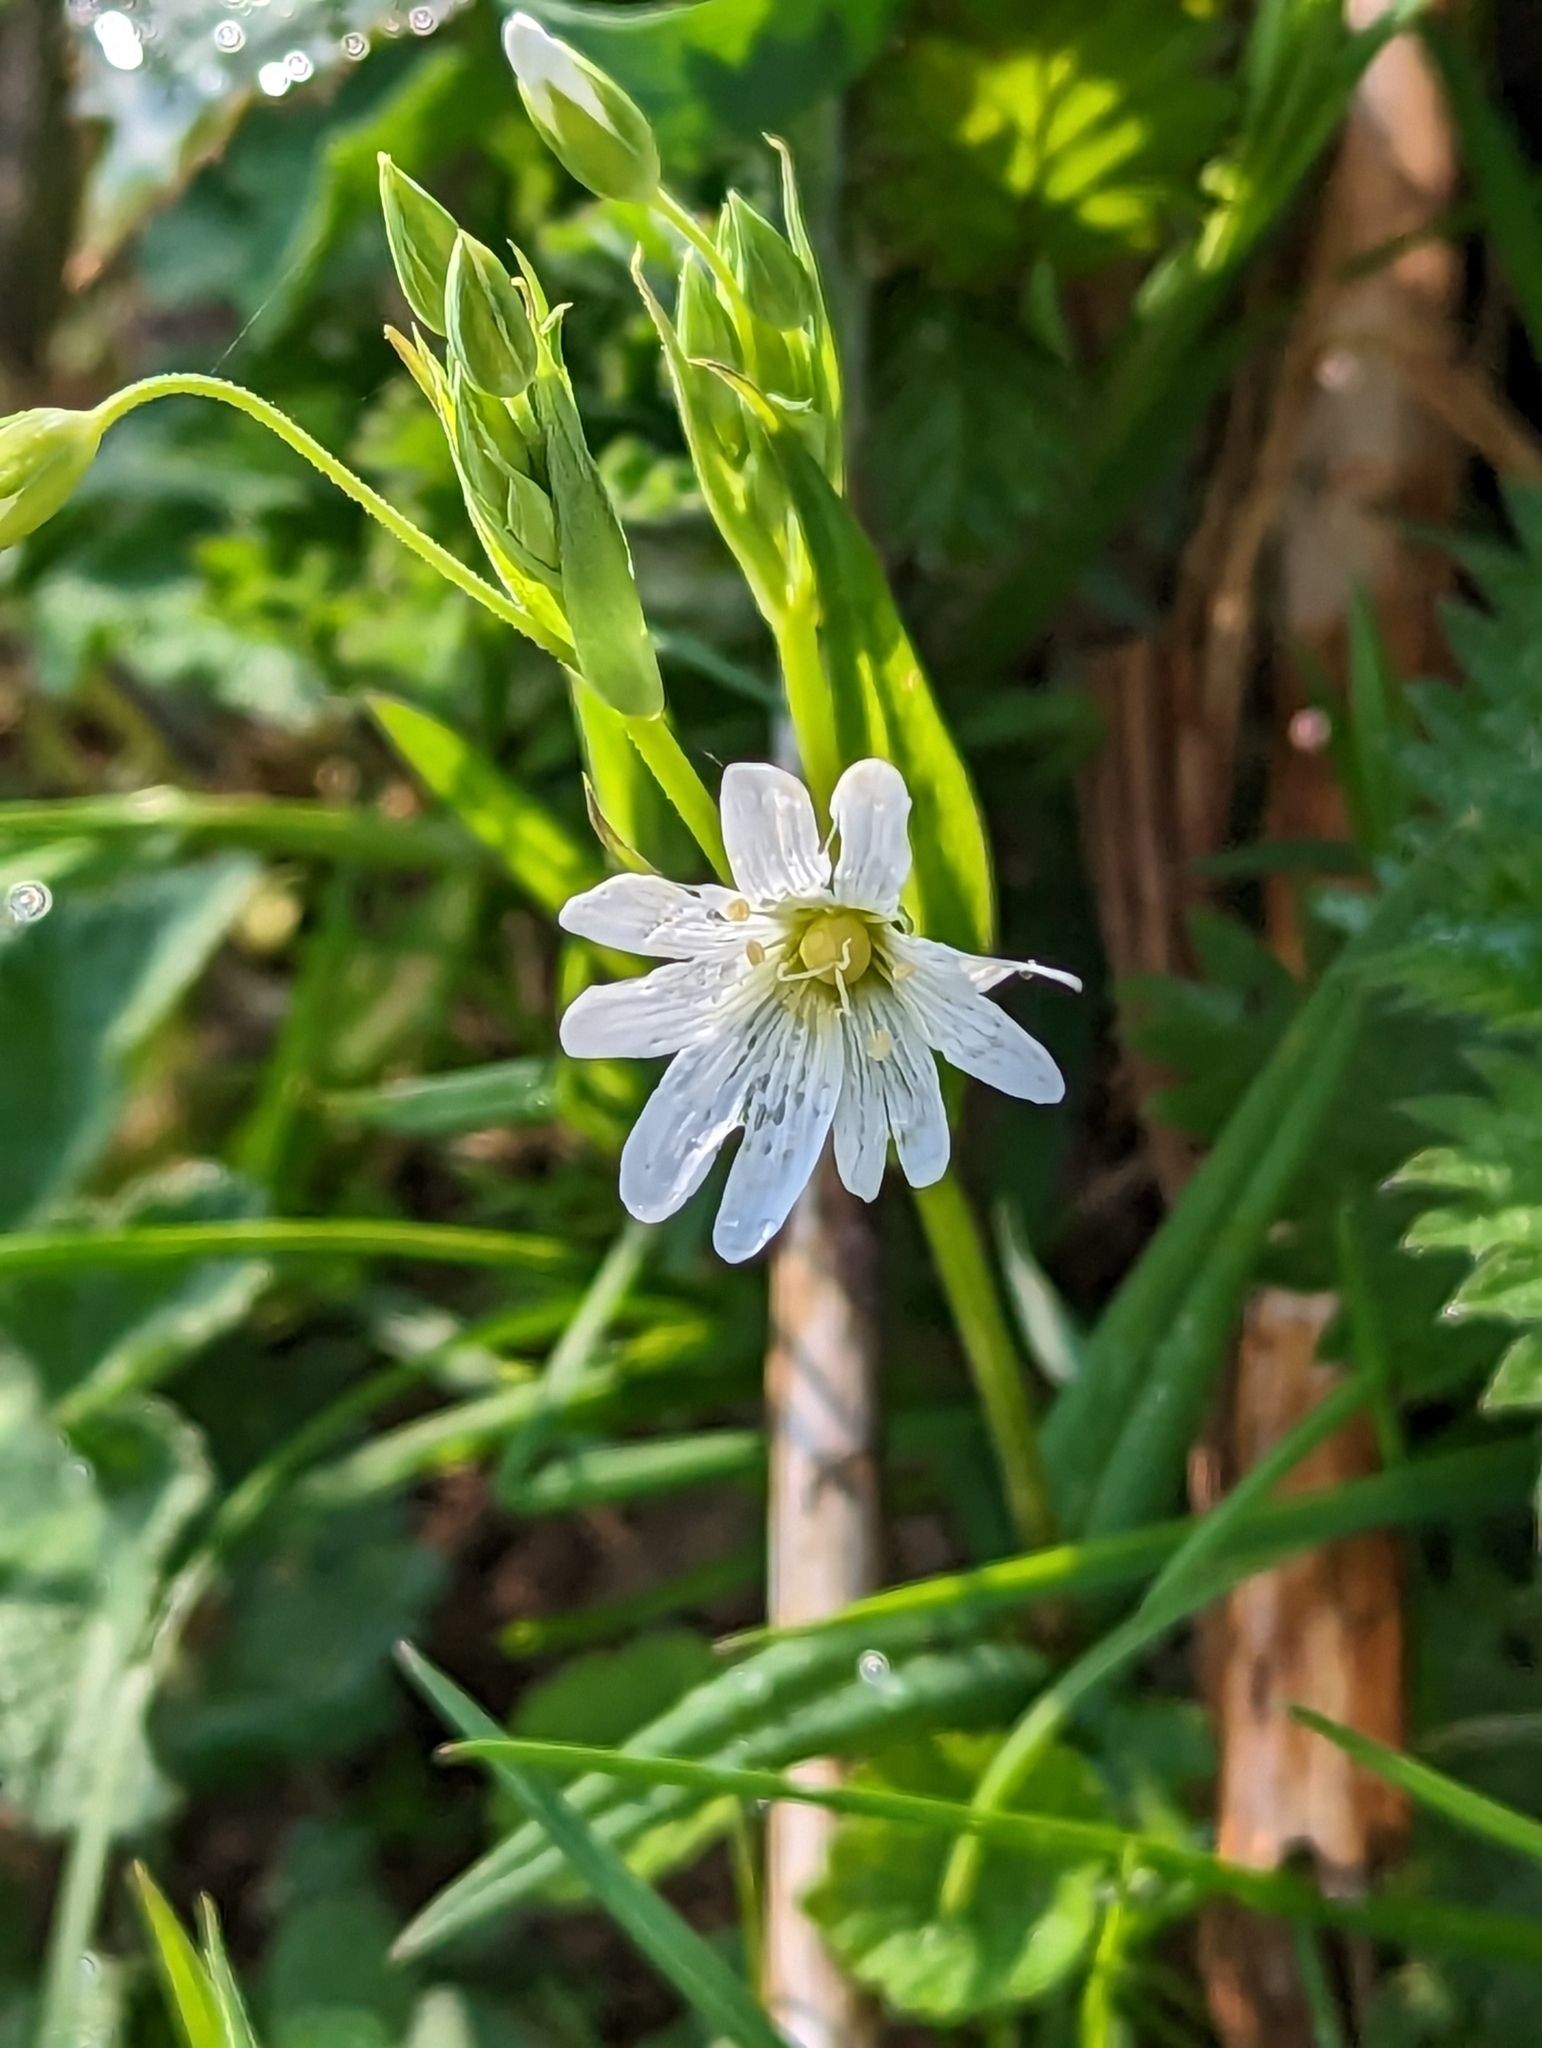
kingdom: Plantae
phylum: Tracheophyta
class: Magnoliopsida
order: Caryophyllales
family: Caryophyllaceae
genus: Rabelera
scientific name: Rabelera holostea
